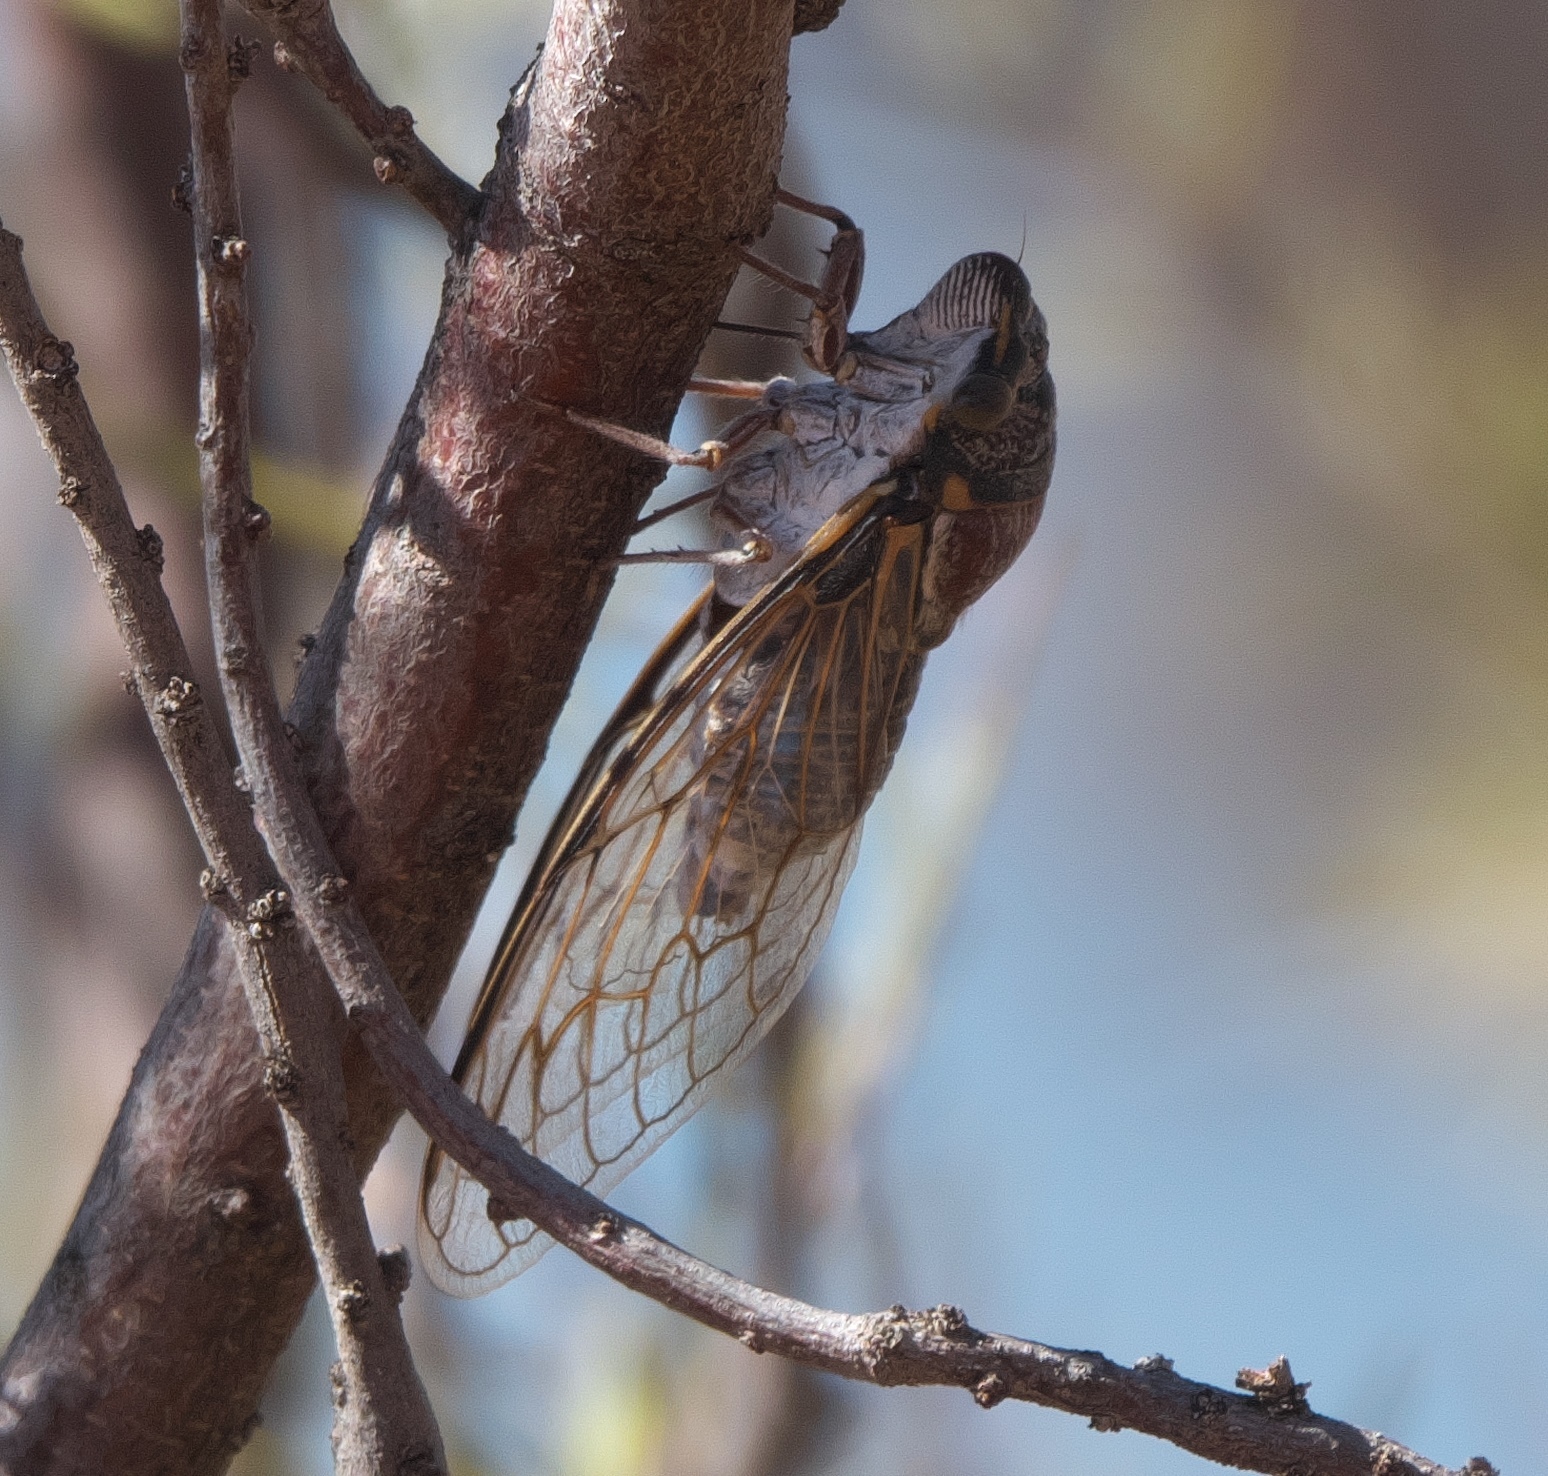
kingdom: Animalia
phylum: Arthropoda
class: Insecta
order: Hemiptera
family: Cicadidae
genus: Burbunga
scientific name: Burbunga hillieri
